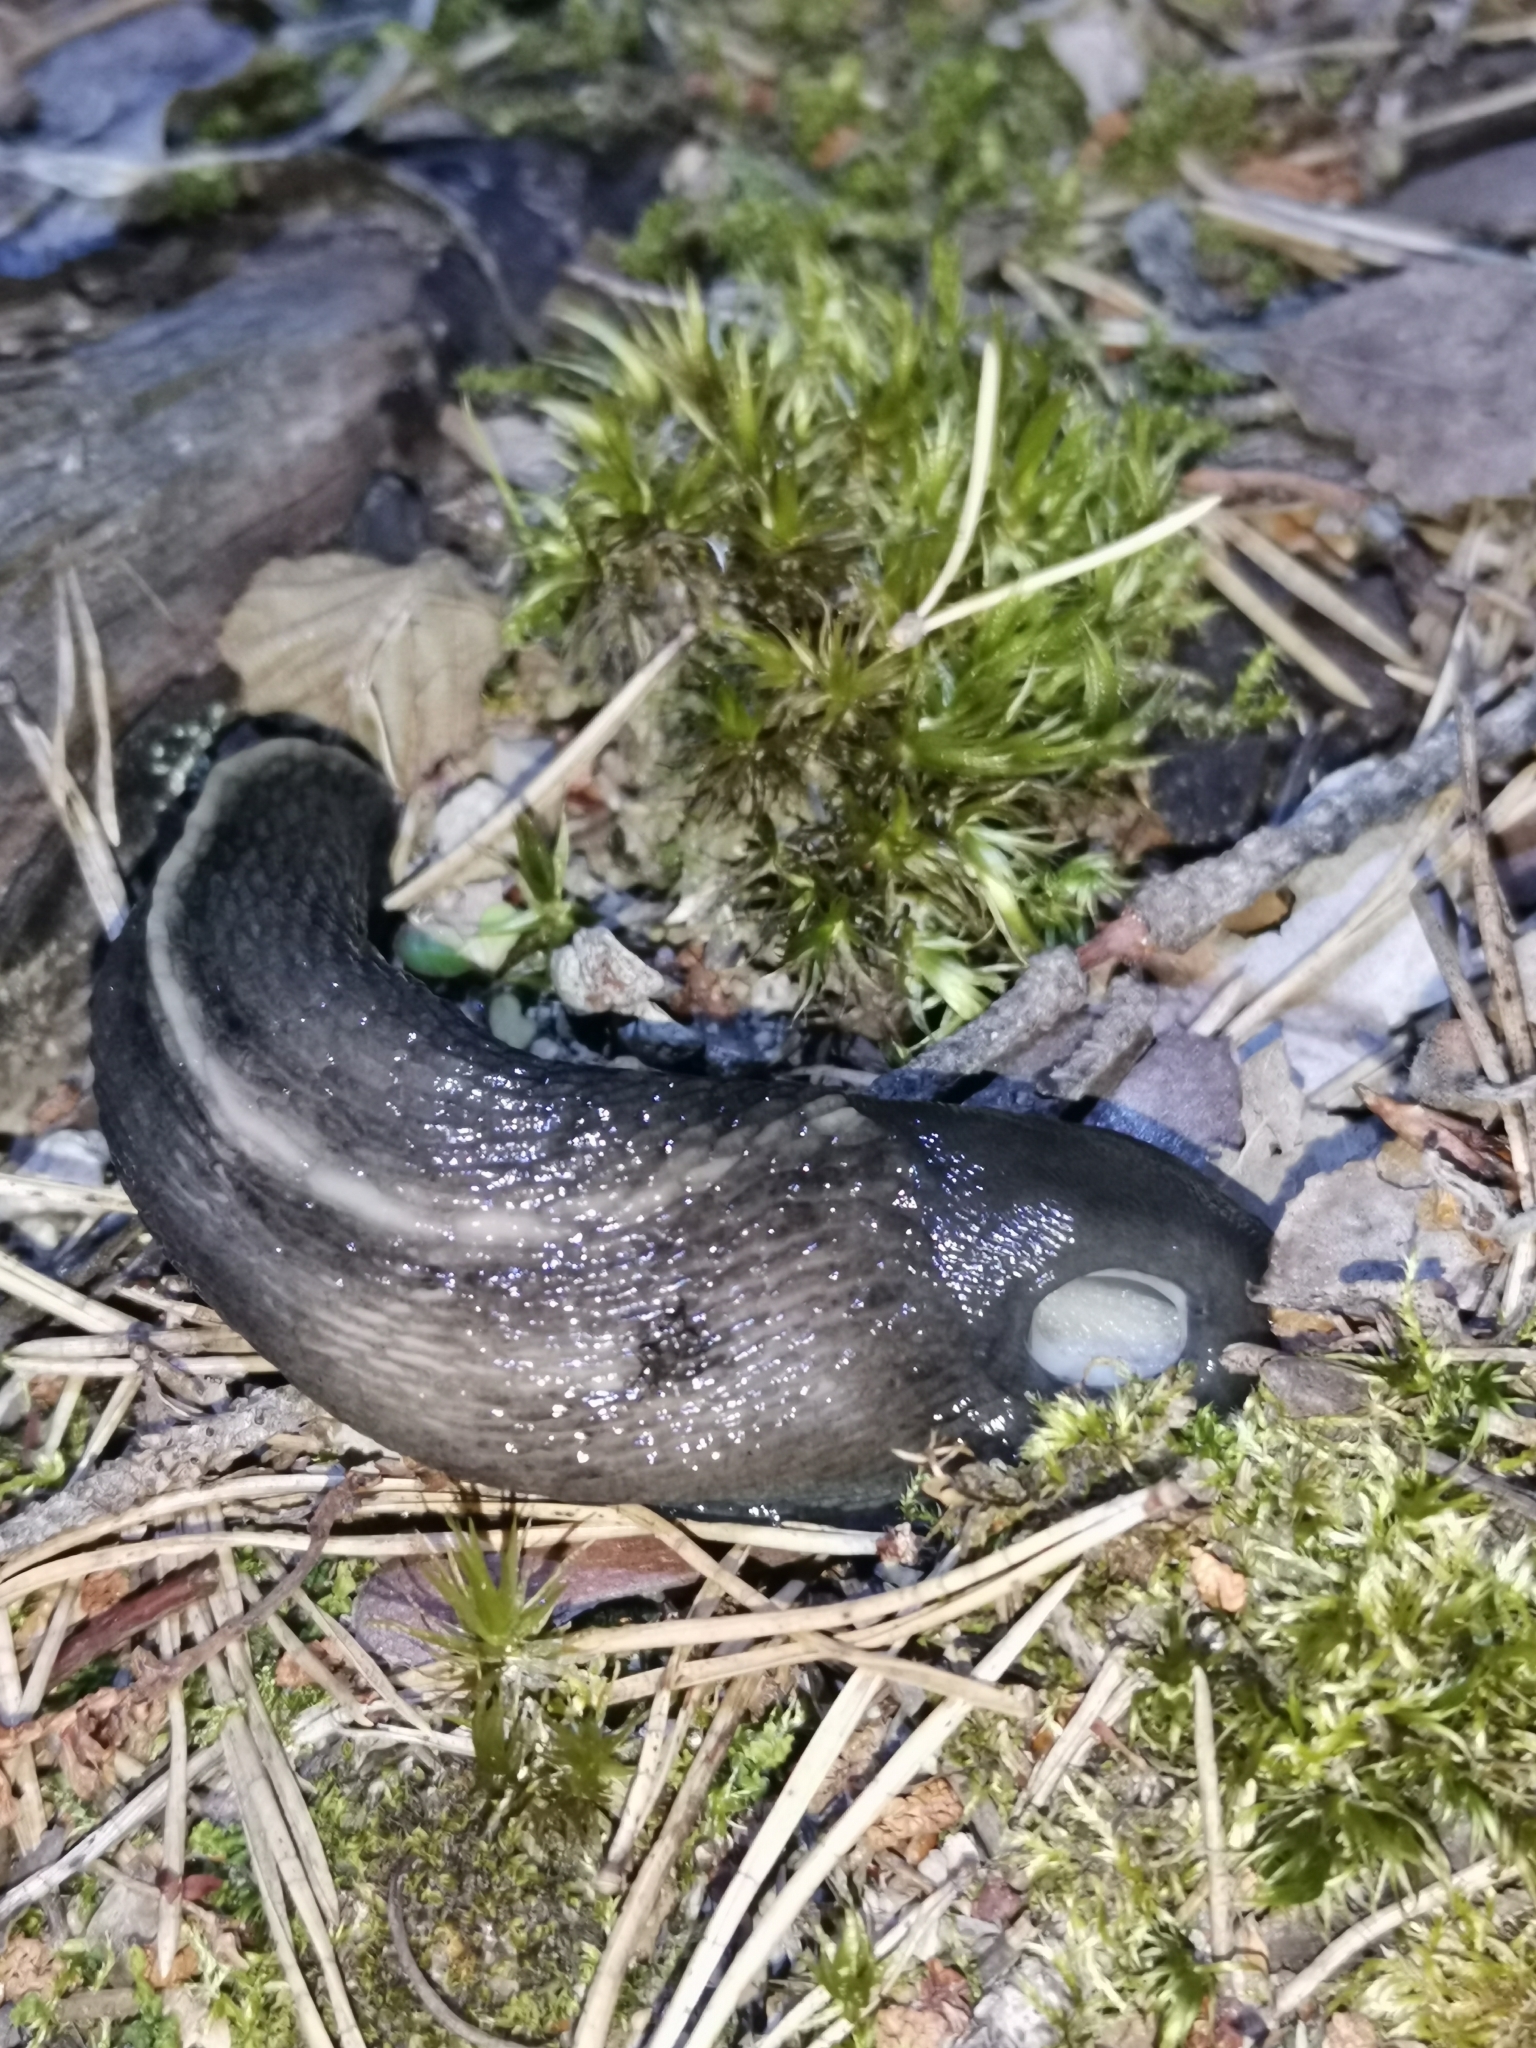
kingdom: Animalia
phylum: Mollusca
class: Gastropoda
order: Stylommatophora
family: Limacidae
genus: Limax
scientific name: Limax cinereoniger
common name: Ash-black slug
